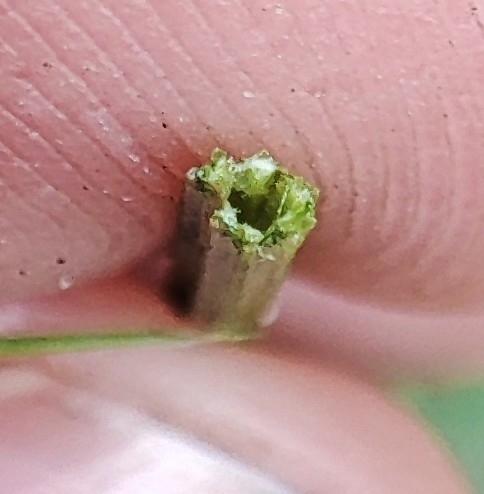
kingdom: Plantae
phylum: Tracheophyta
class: Magnoliopsida
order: Apiales
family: Apiaceae
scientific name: Apiaceae
